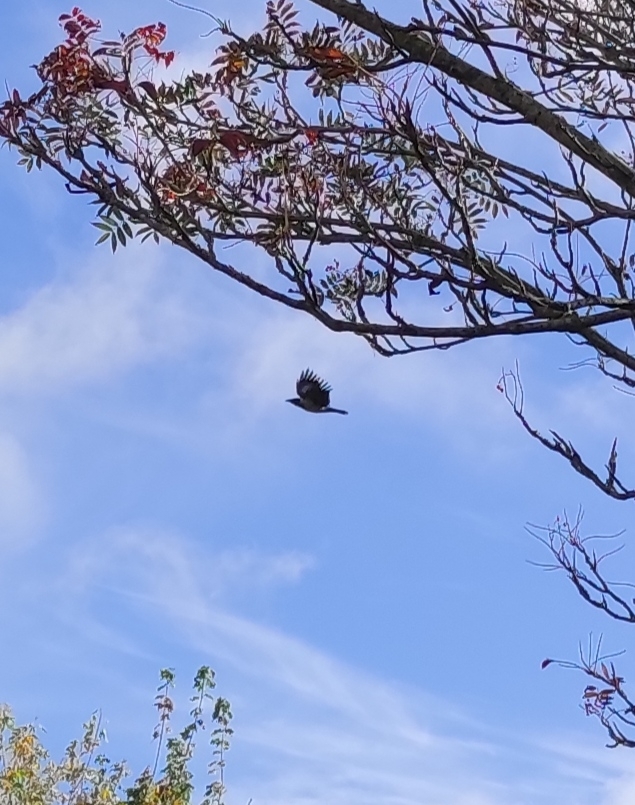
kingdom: Animalia
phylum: Chordata
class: Aves
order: Passeriformes
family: Corvidae
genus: Corvus
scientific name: Corvus cornix
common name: Hooded crow
